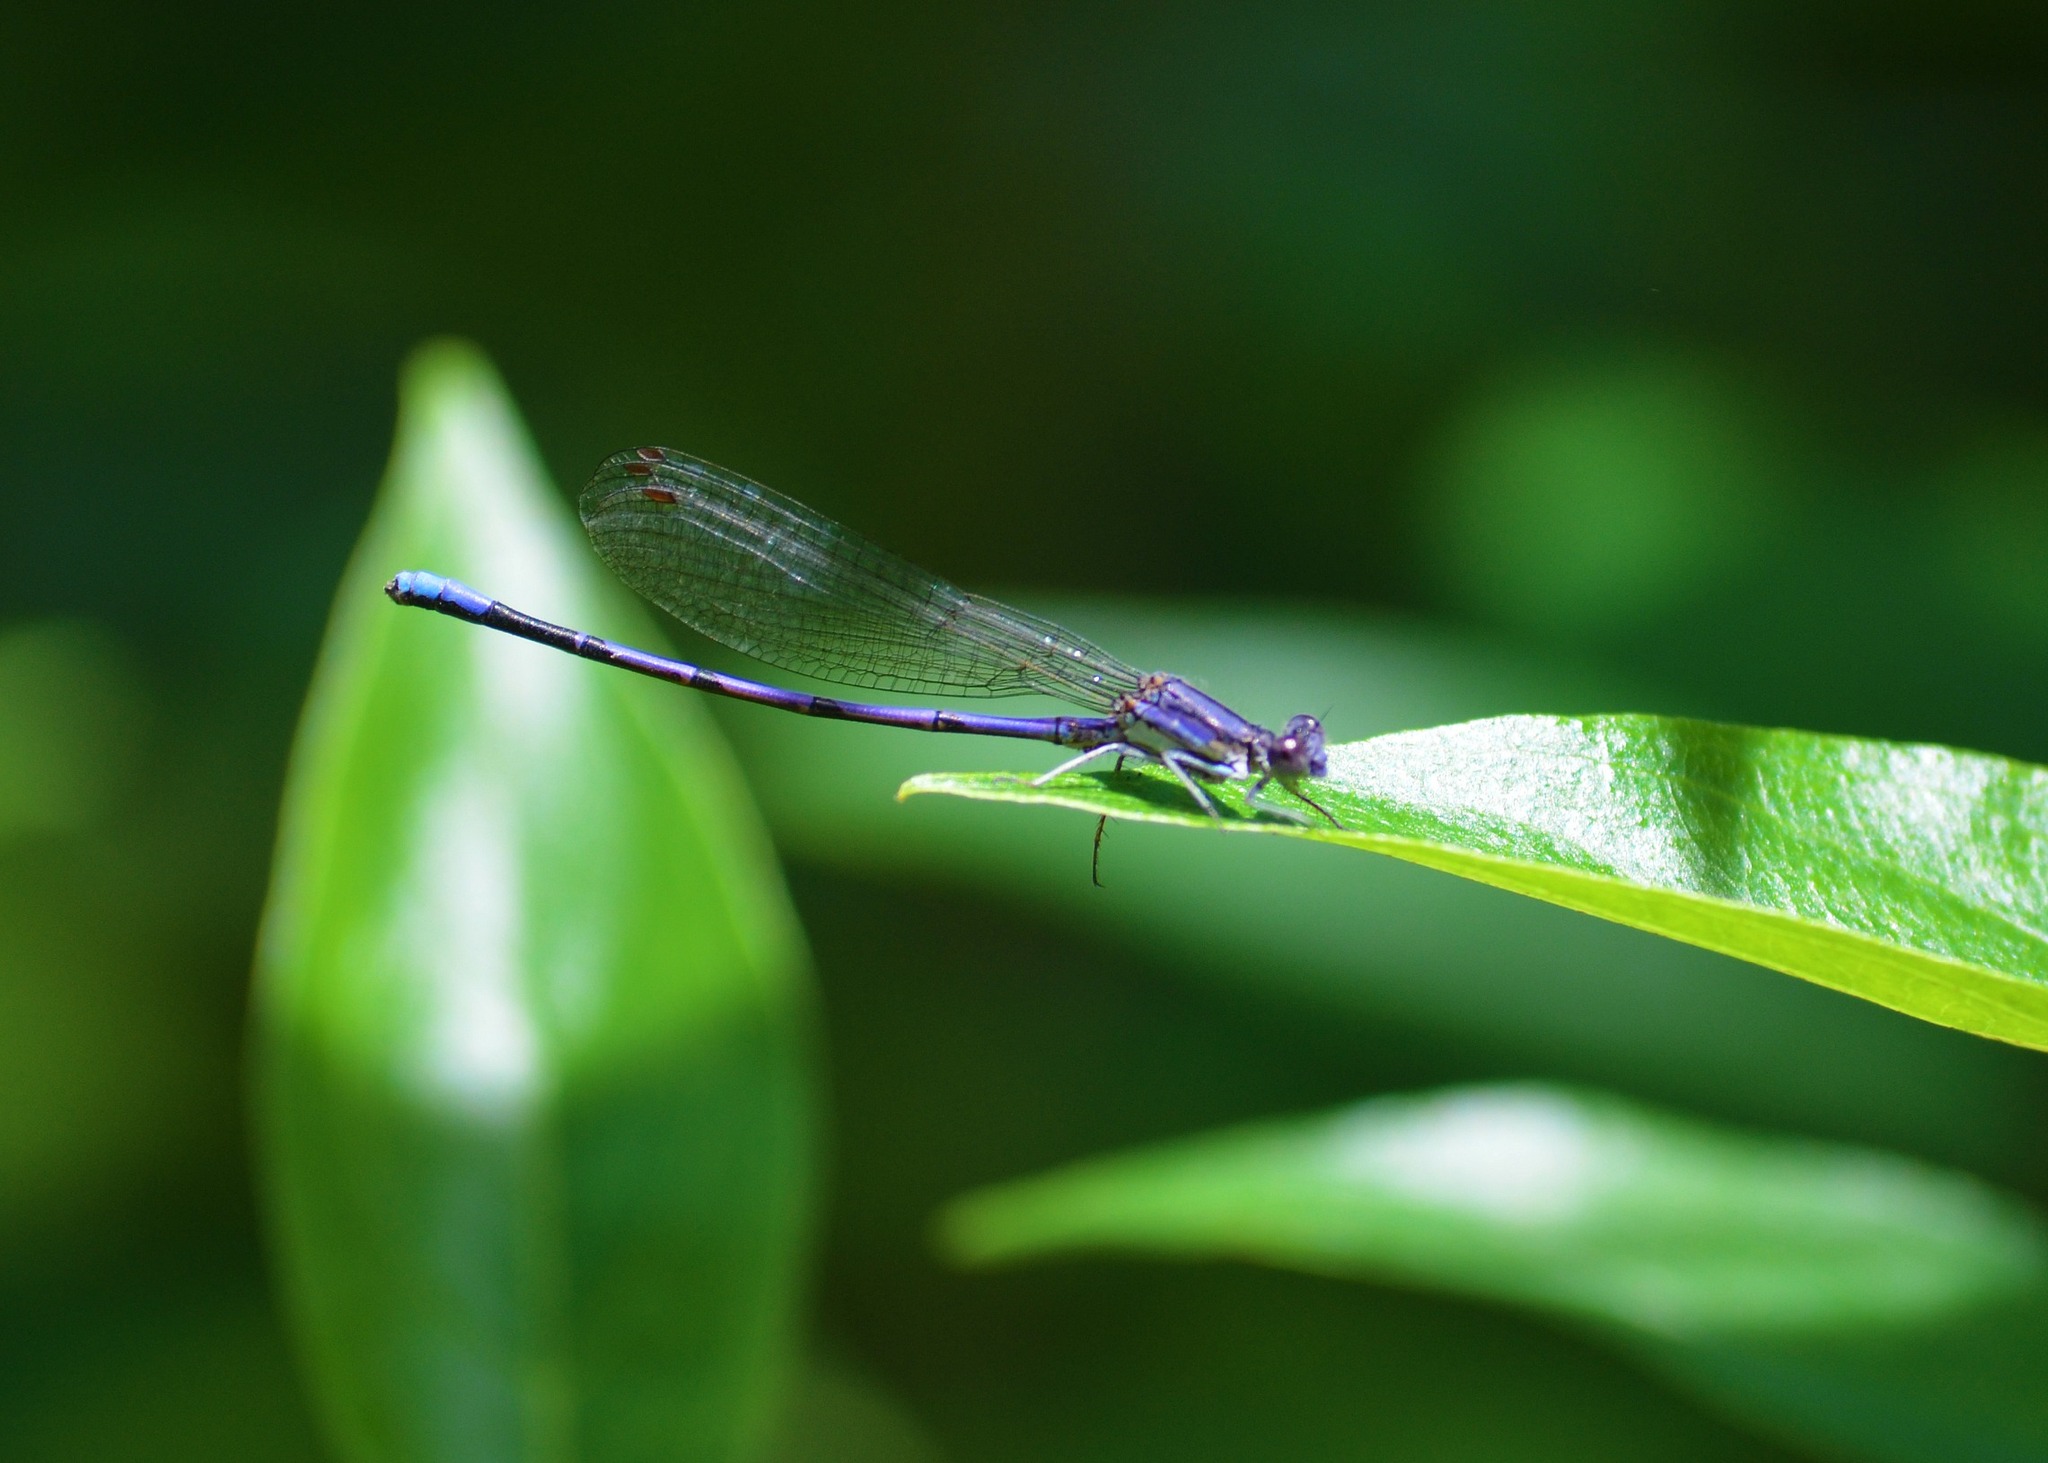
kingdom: Animalia
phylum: Arthropoda
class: Insecta
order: Odonata
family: Coenagrionidae
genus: Argia
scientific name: Argia fumipennis
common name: Variable dancer
